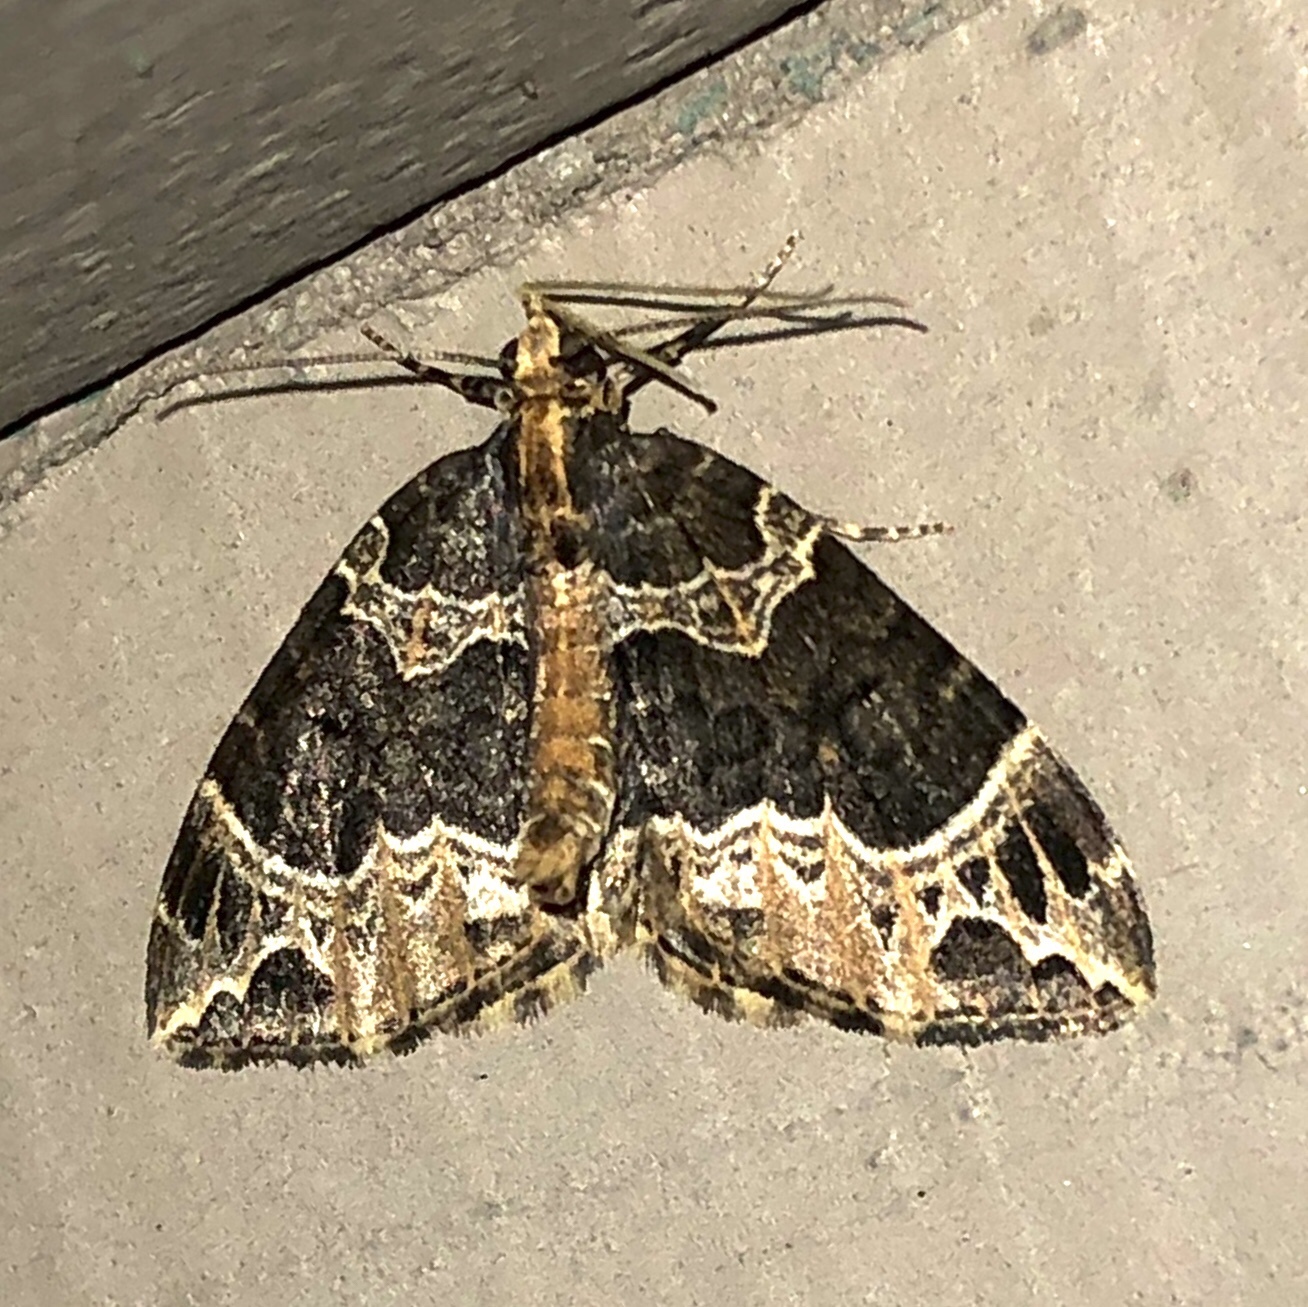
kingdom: Animalia
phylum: Arthropoda
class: Insecta
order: Lepidoptera
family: Geometridae
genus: Ecliptopera
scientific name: Ecliptopera silaceata
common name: Small phoenix
